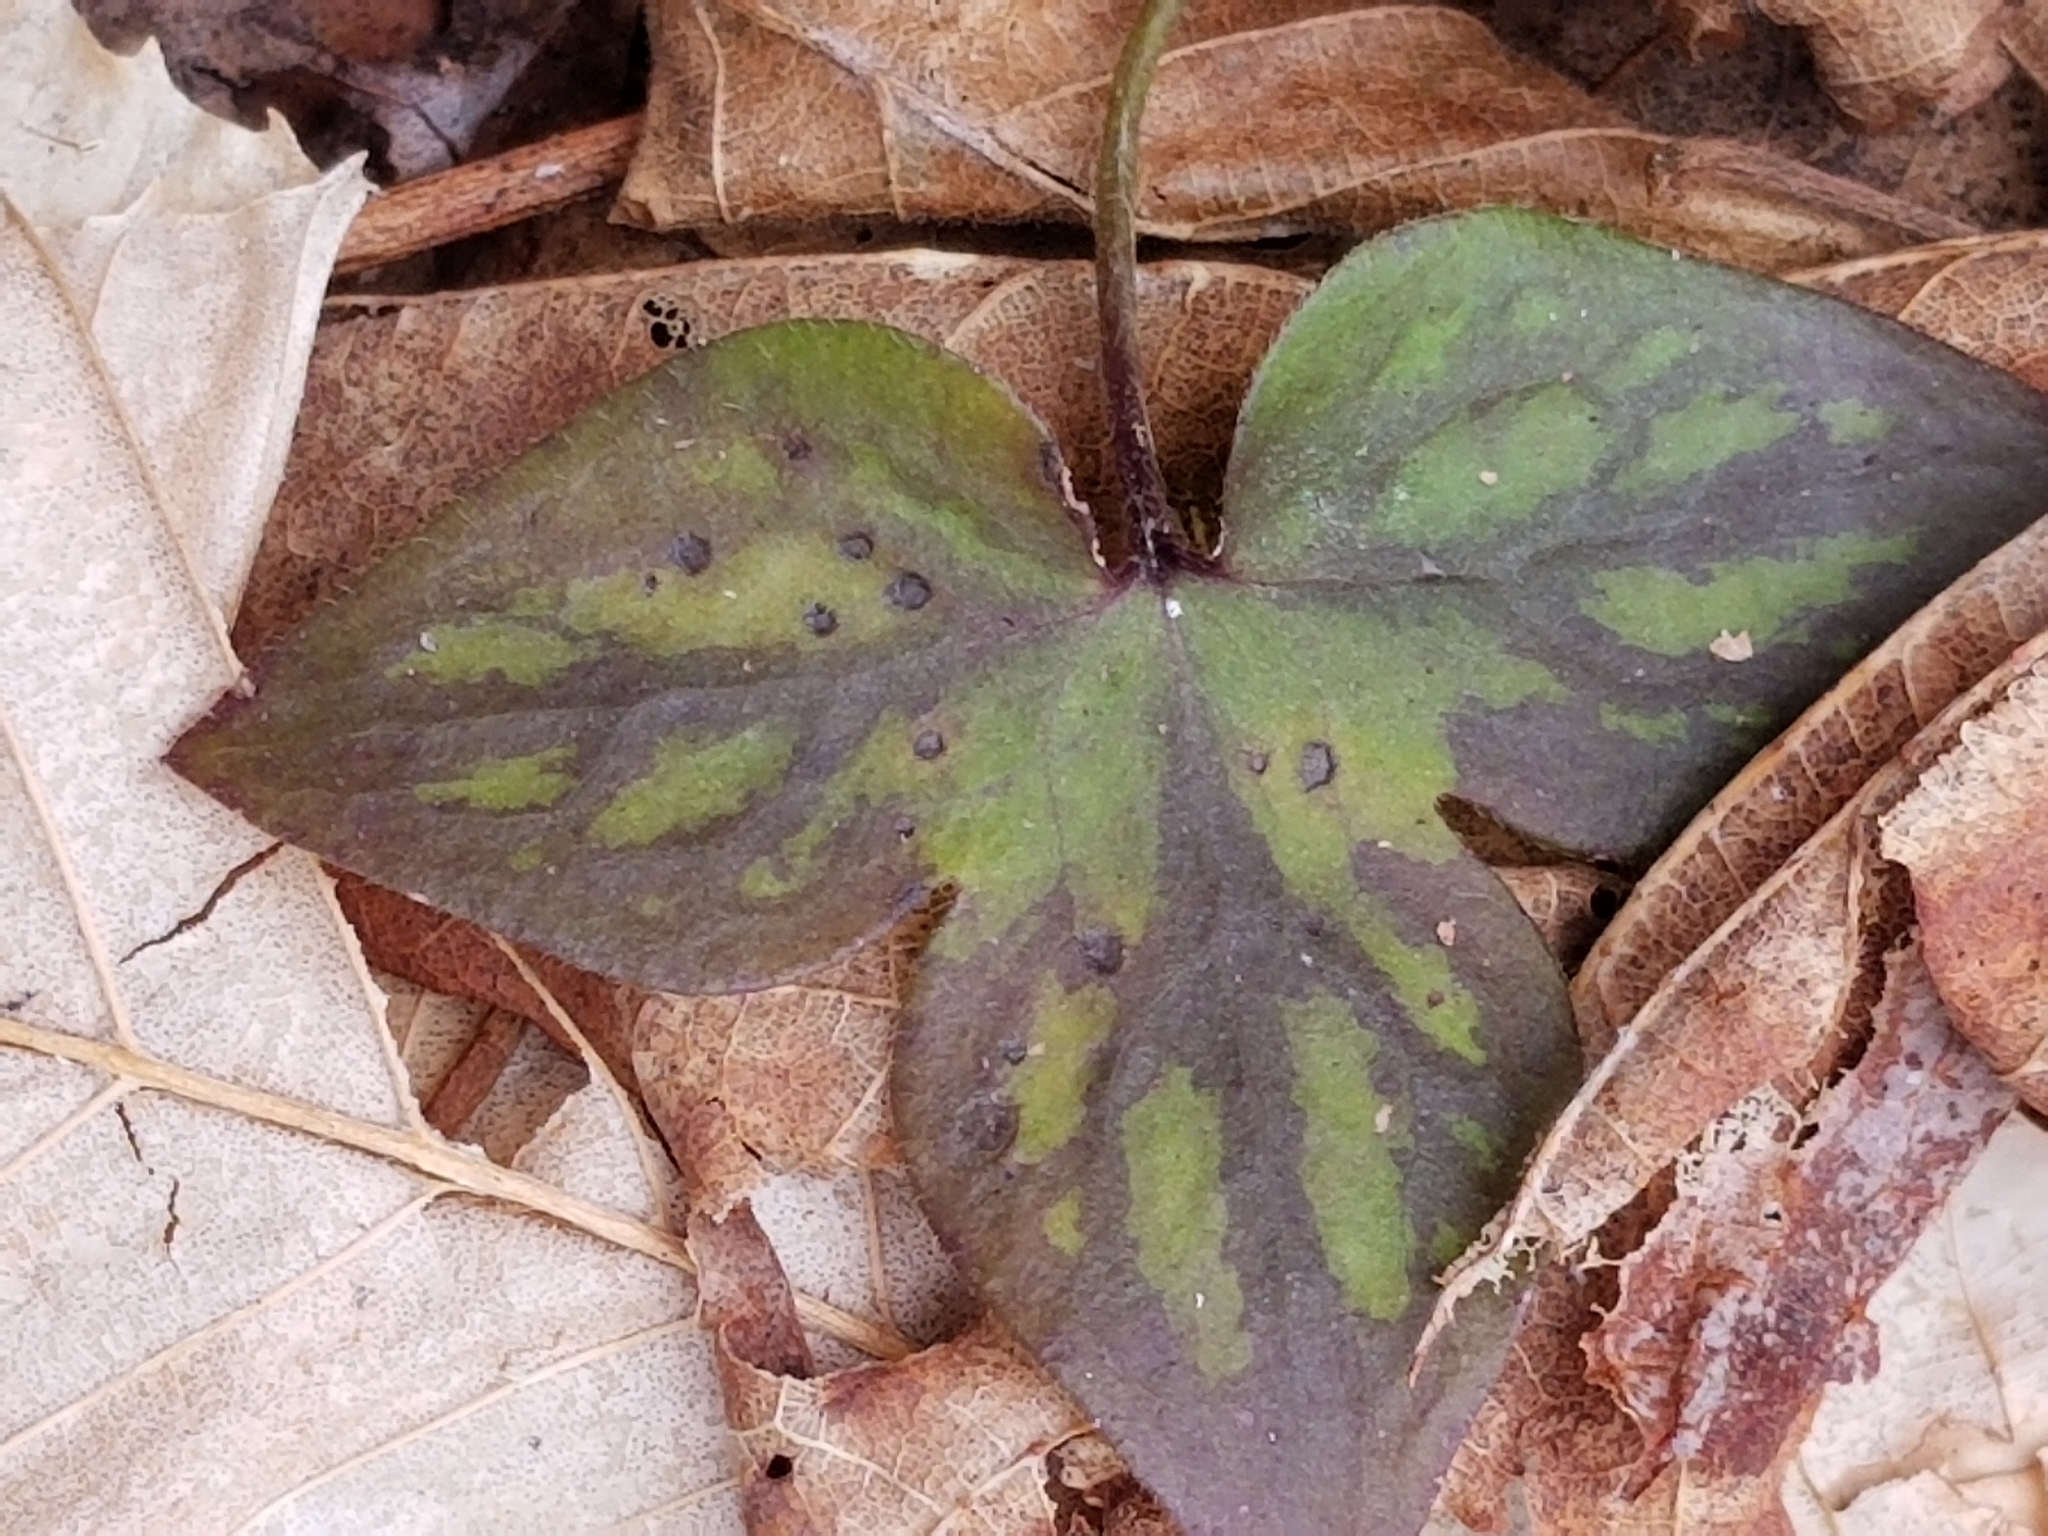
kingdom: Plantae
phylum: Tracheophyta
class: Magnoliopsida
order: Ranunculales
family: Ranunculaceae
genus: Hepatica
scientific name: Hepatica acutiloba
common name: Sharp-lobed hepatica
